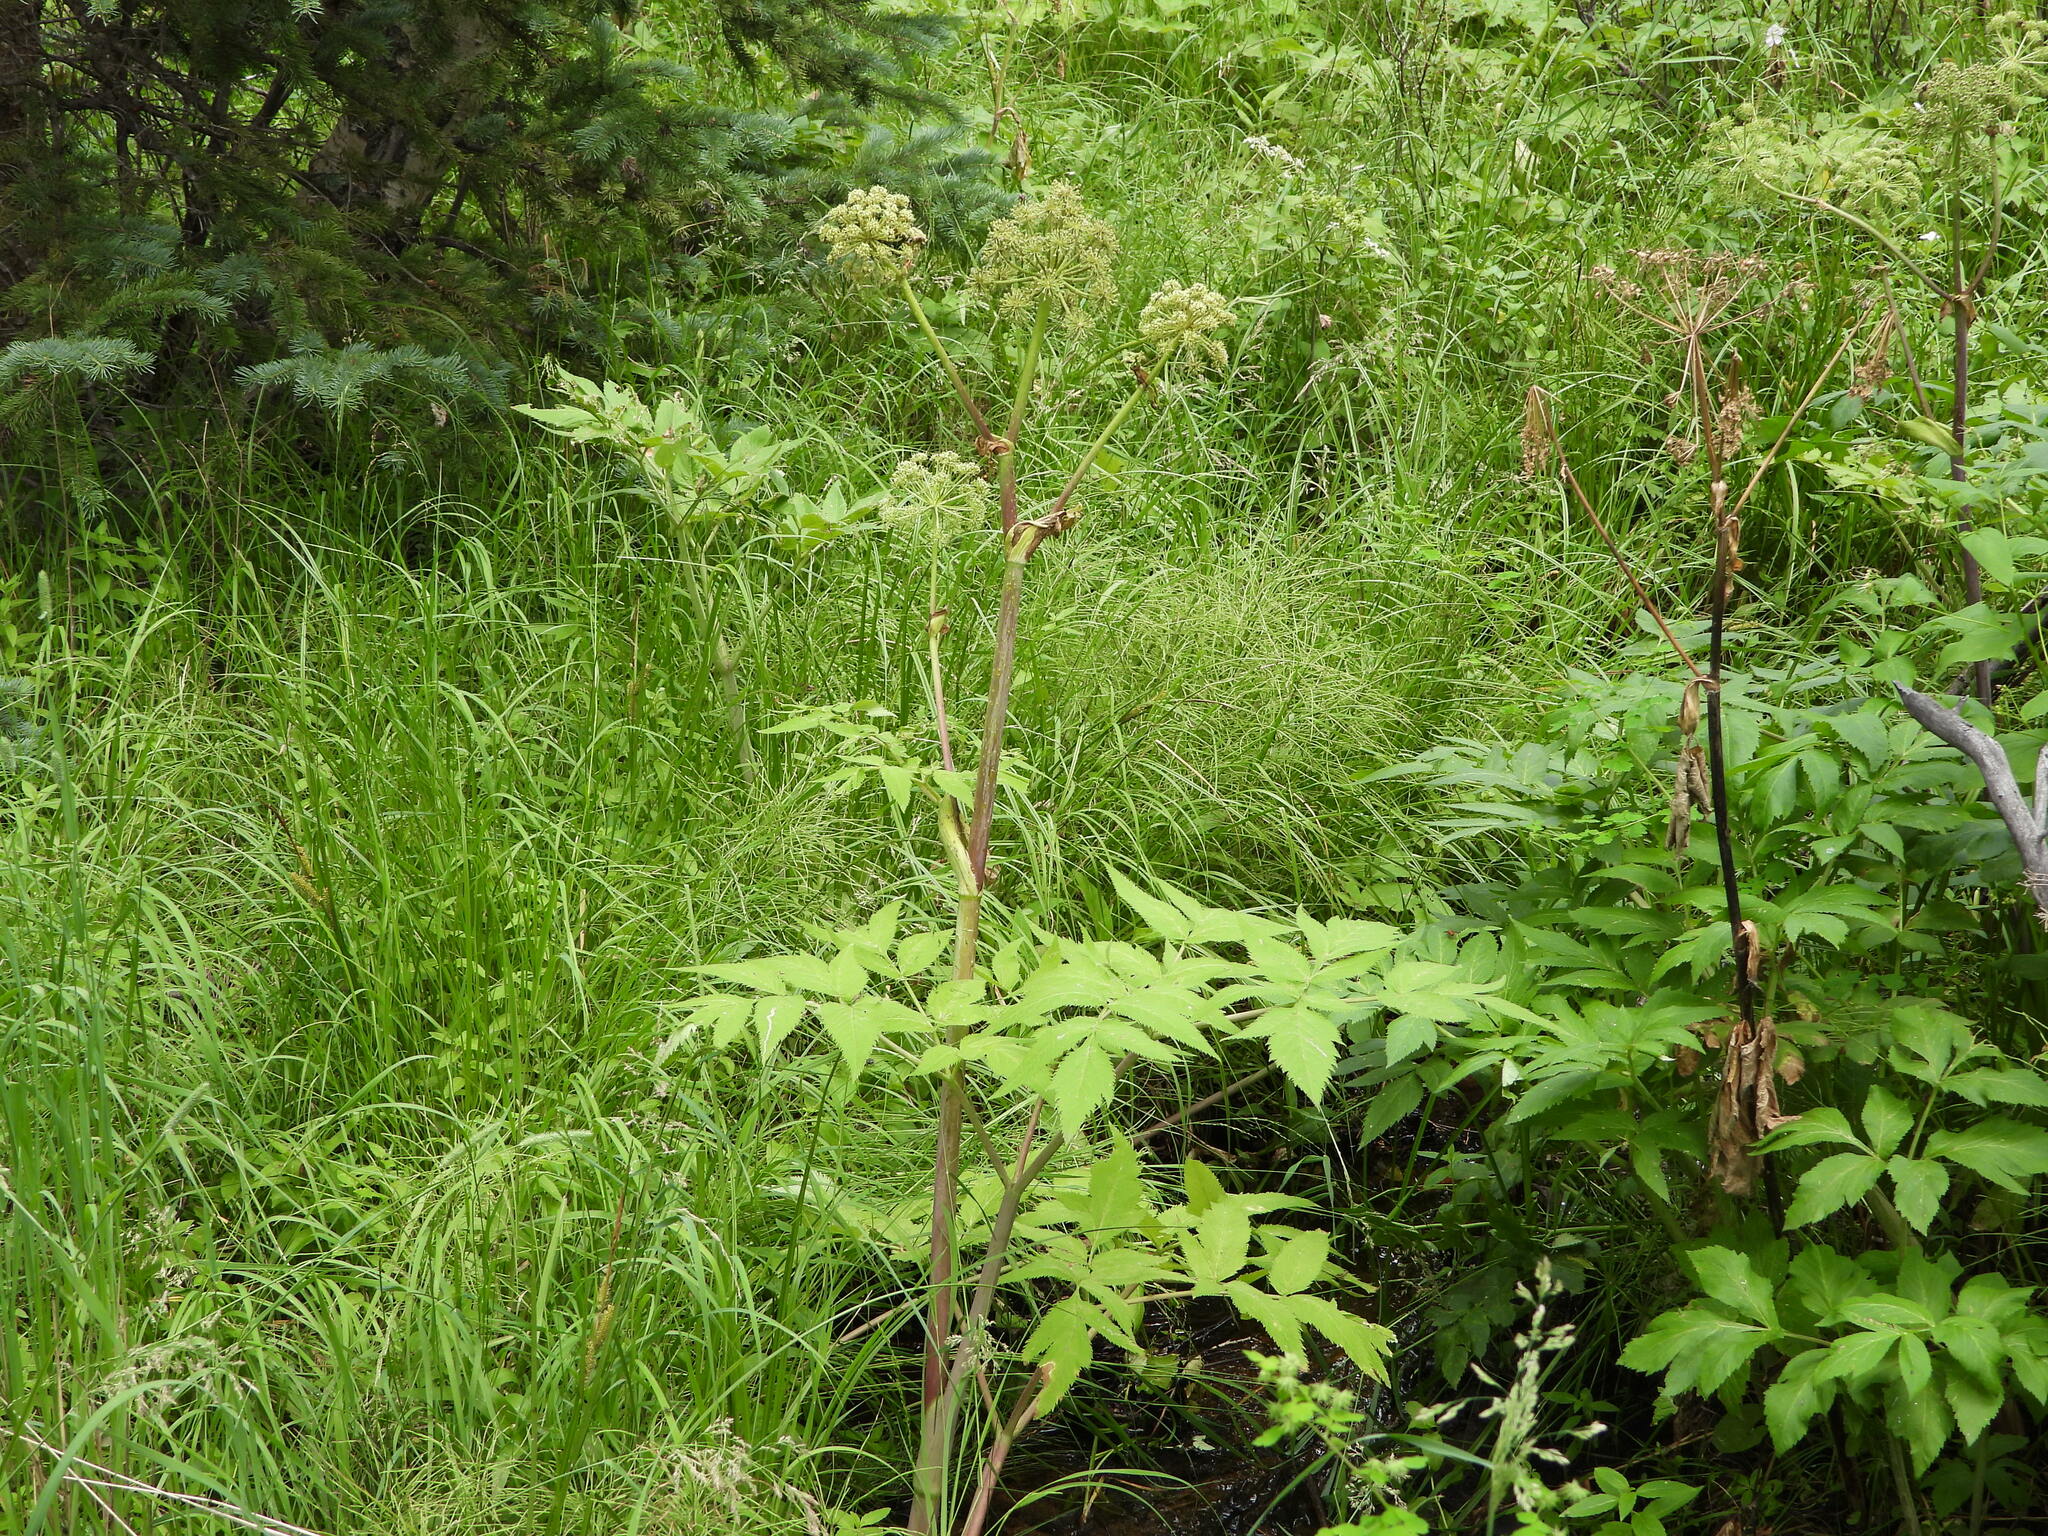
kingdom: Plantae
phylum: Tracheophyta
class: Magnoliopsida
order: Apiales
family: Apiaceae
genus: Angelica
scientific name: Angelica ampla
